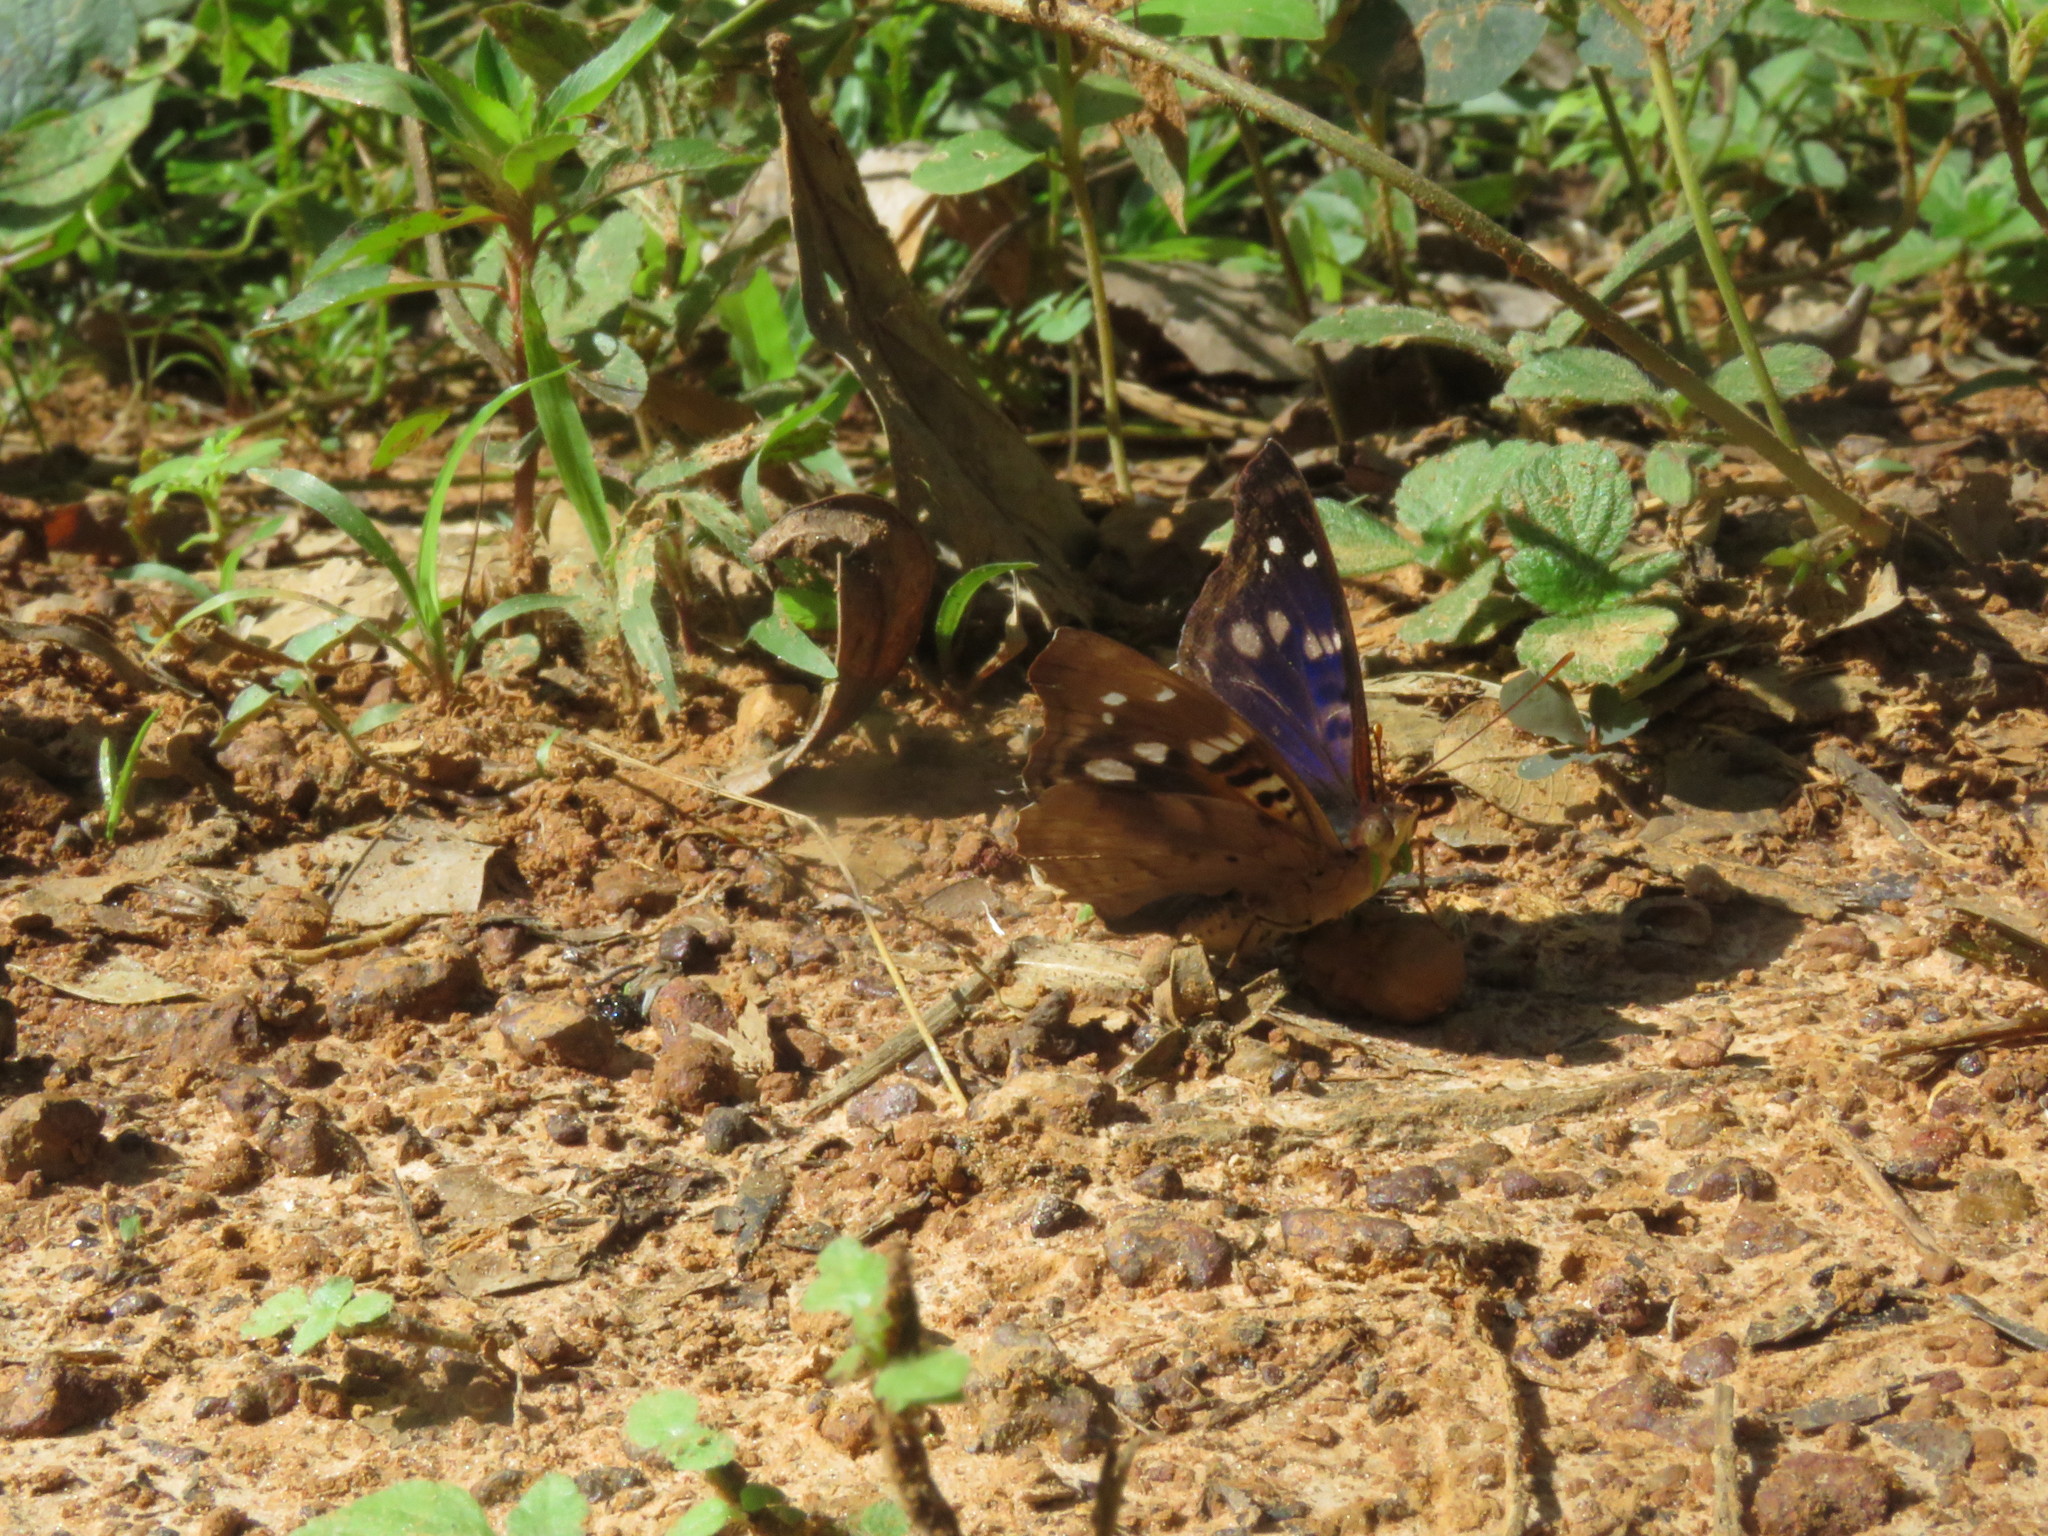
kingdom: Animalia
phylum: Arthropoda
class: Insecta
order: Lepidoptera
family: Nymphalidae
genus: Doxocopa
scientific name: Doxocopa agathina
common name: Agathina emperor
